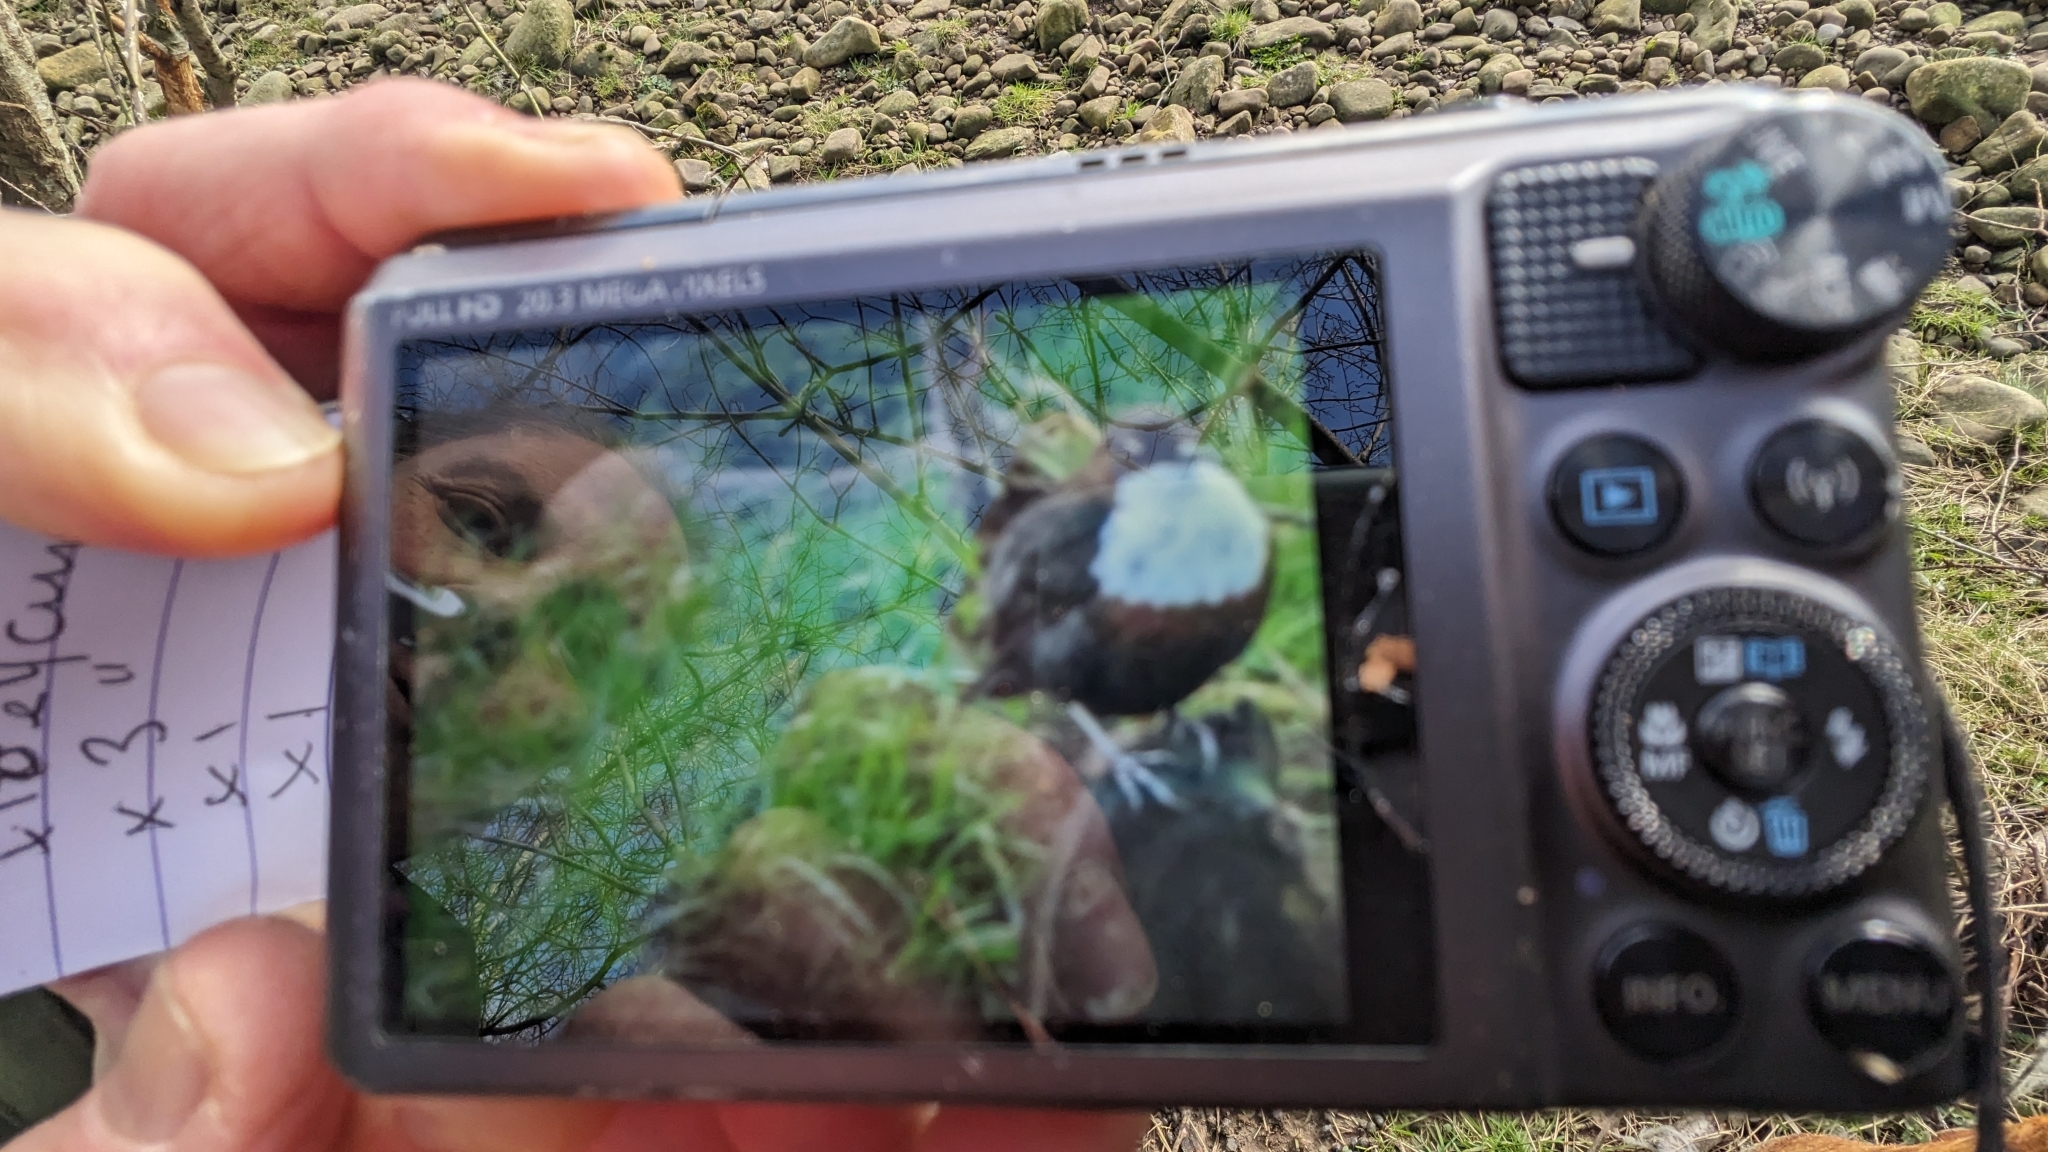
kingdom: Animalia
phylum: Chordata
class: Aves
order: Passeriformes
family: Cinclidae
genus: Cinclus
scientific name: Cinclus cinclus
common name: White-throated dipper
